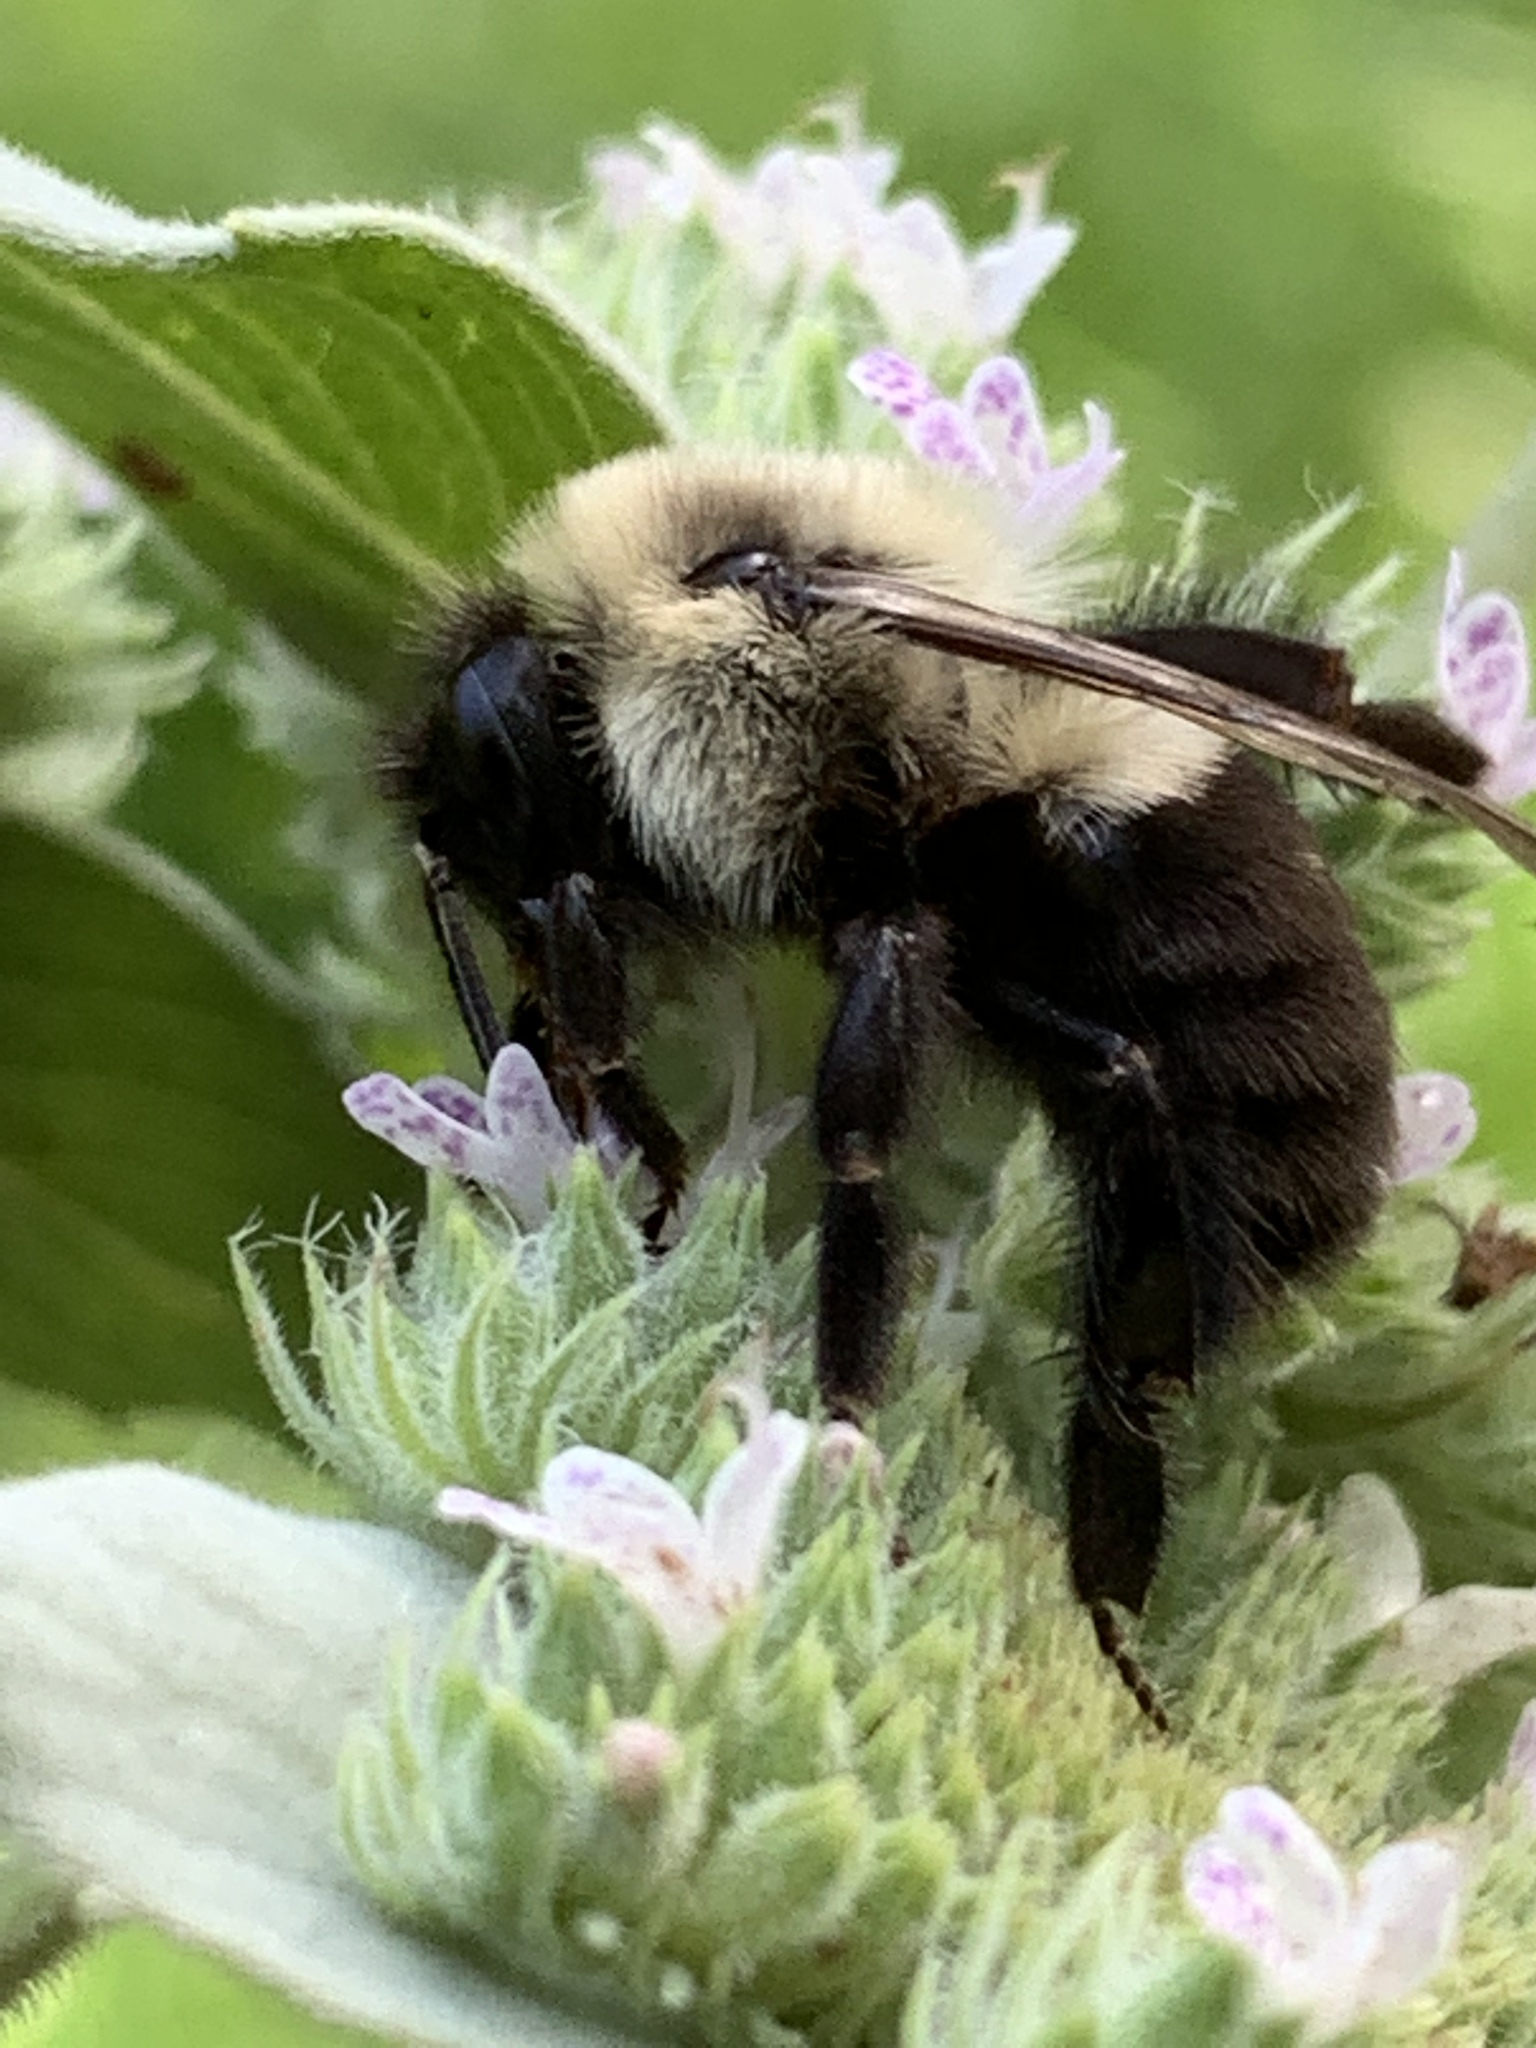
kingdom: Animalia
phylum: Arthropoda
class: Insecta
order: Hymenoptera
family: Apidae
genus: Bombus
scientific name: Bombus impatiens
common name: Common eastern bumble bee
